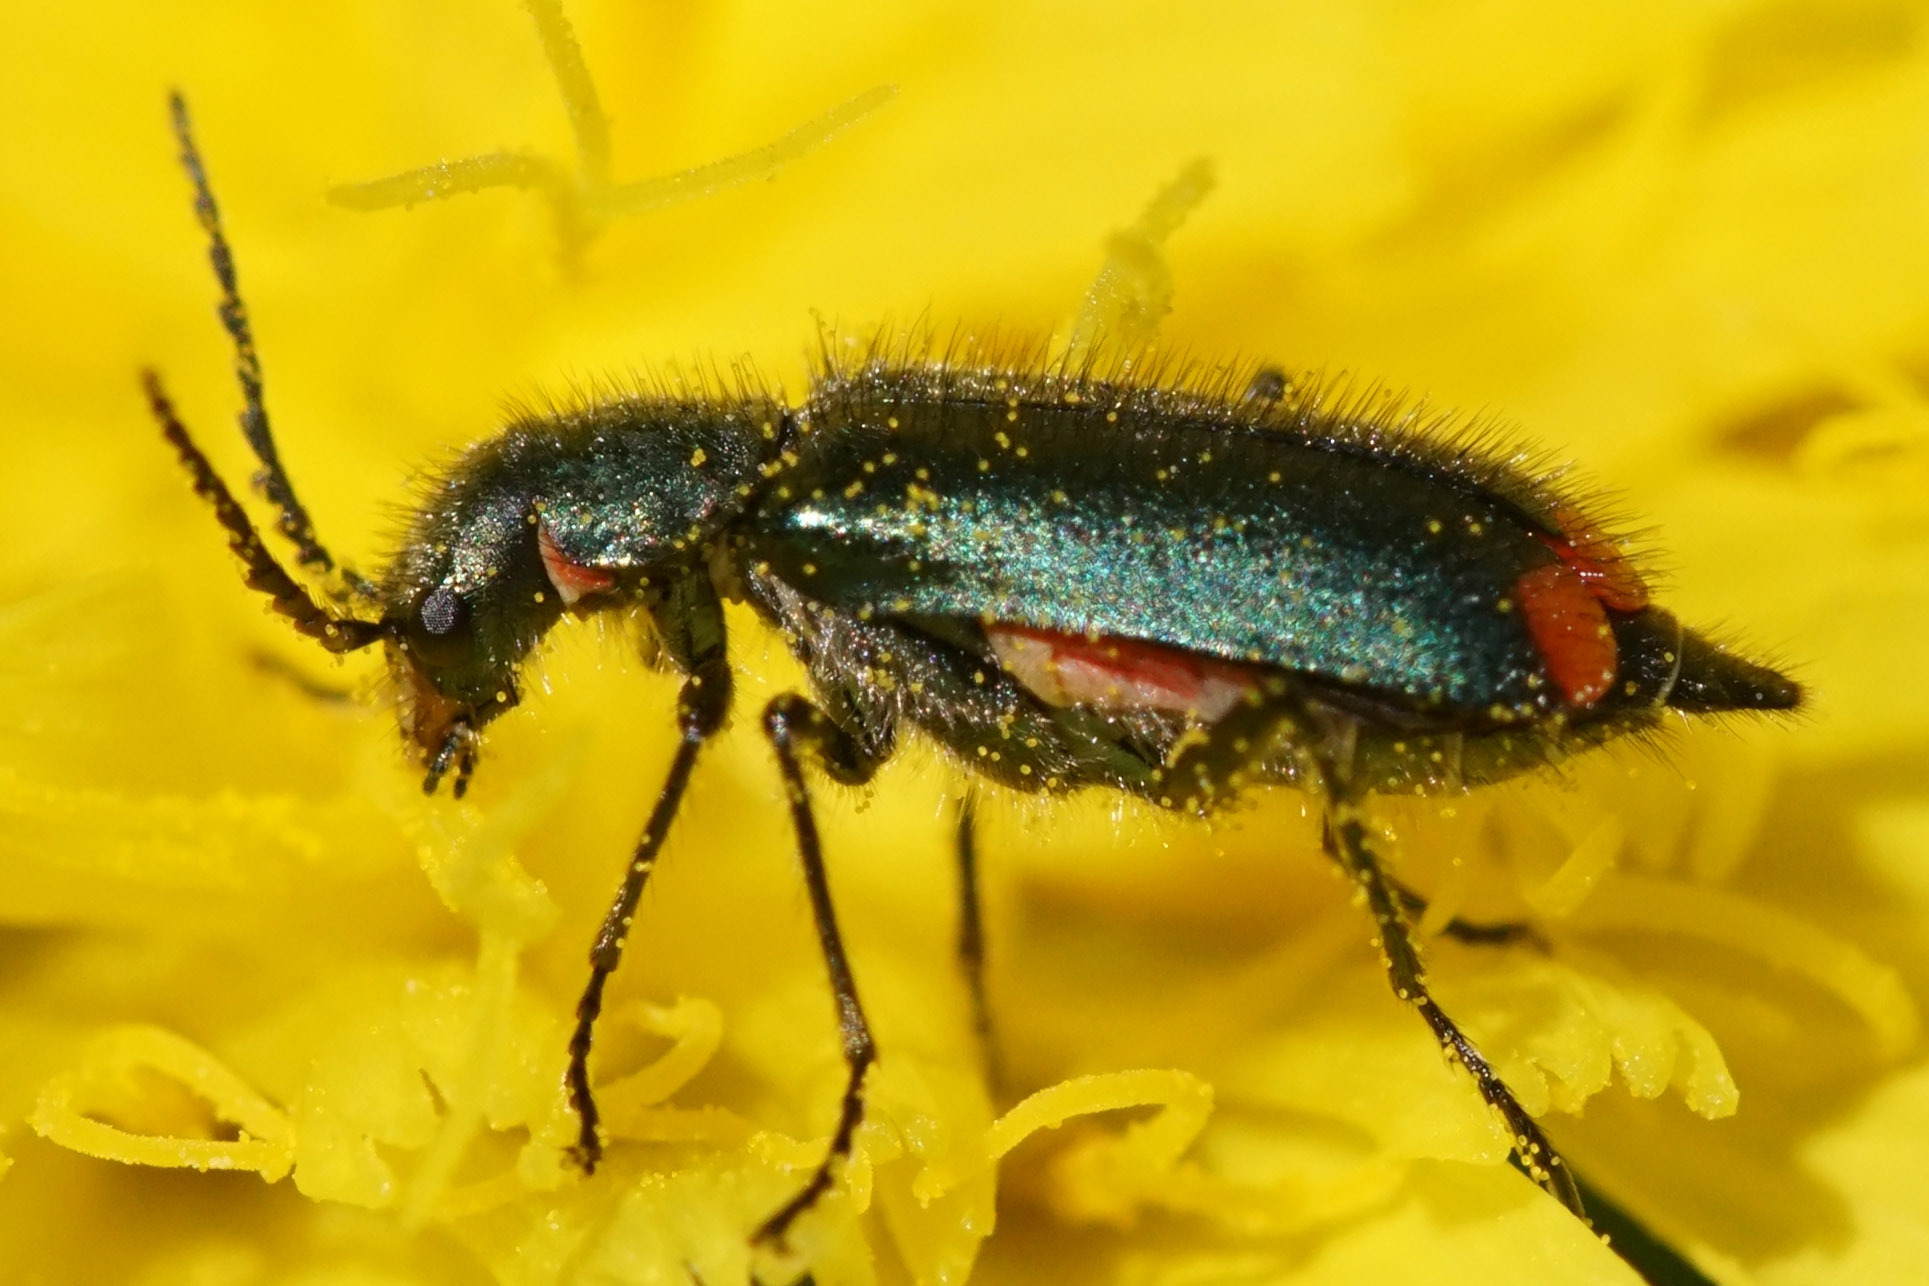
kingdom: Animalia
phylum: Arthropoda
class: Insecta
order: Coleoptera
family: Melyridae
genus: Malachius
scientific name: Malachius bipustulatus
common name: Malachite beetle
